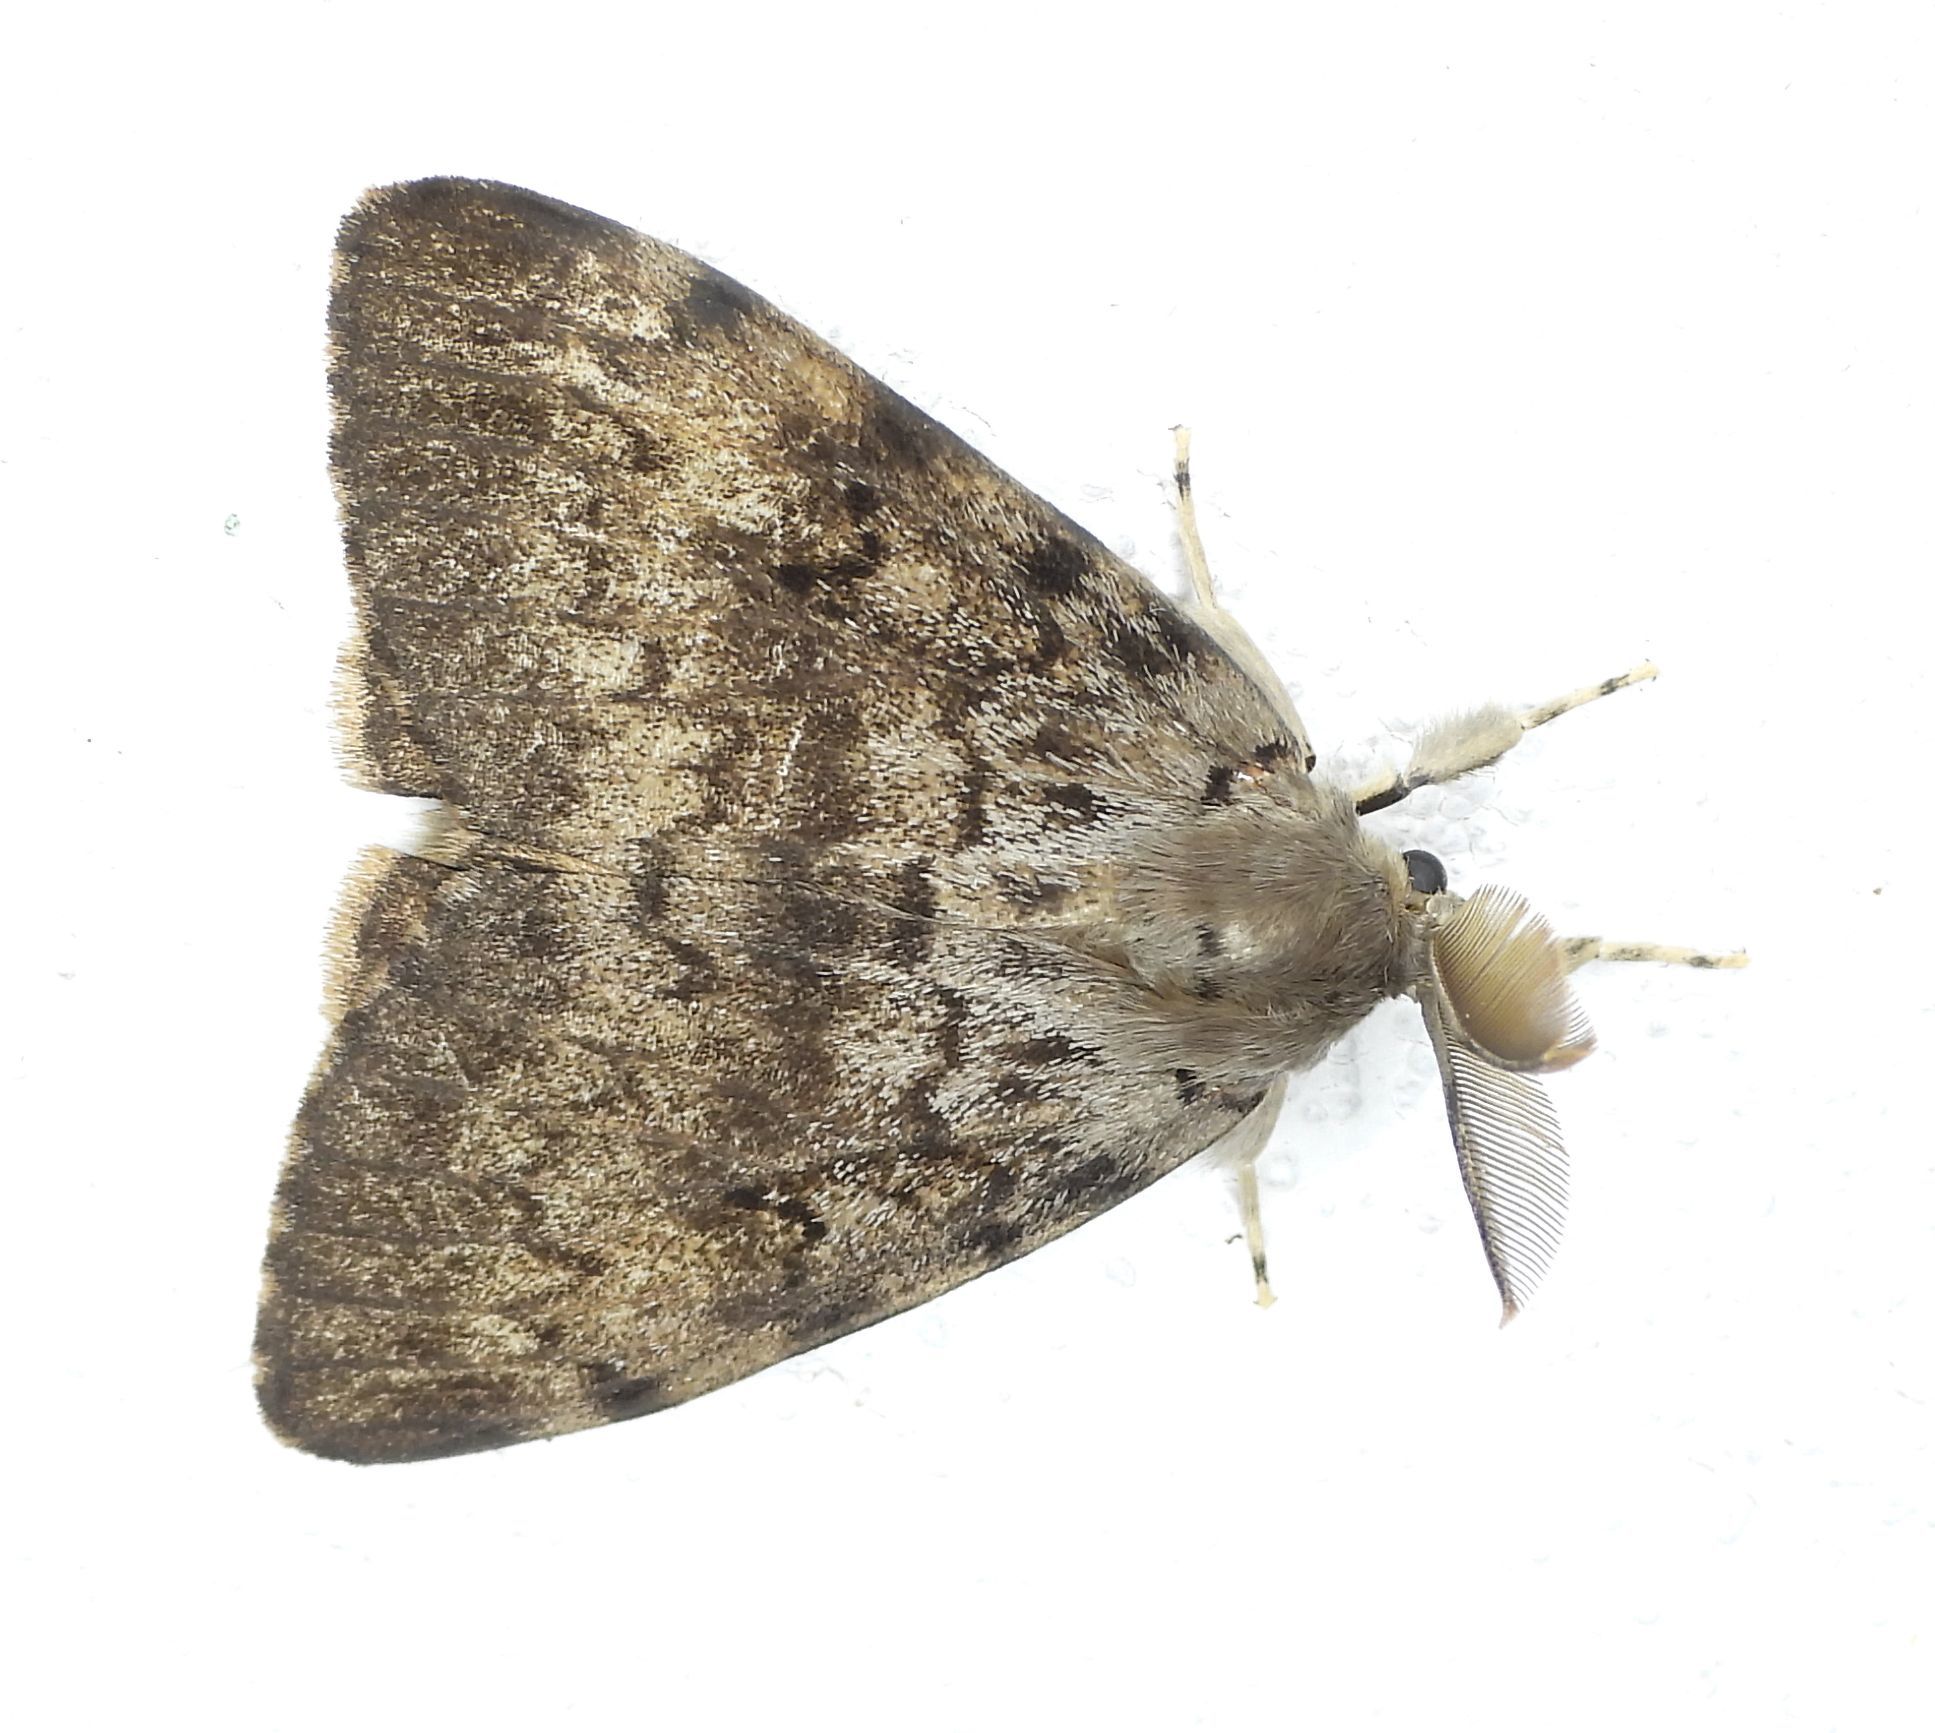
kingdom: Animalia
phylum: Arthropoda
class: Insecta
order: Lepidoptera
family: Erebidae
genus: Lymantria
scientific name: Lymantria dispar
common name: Gypsy moth
